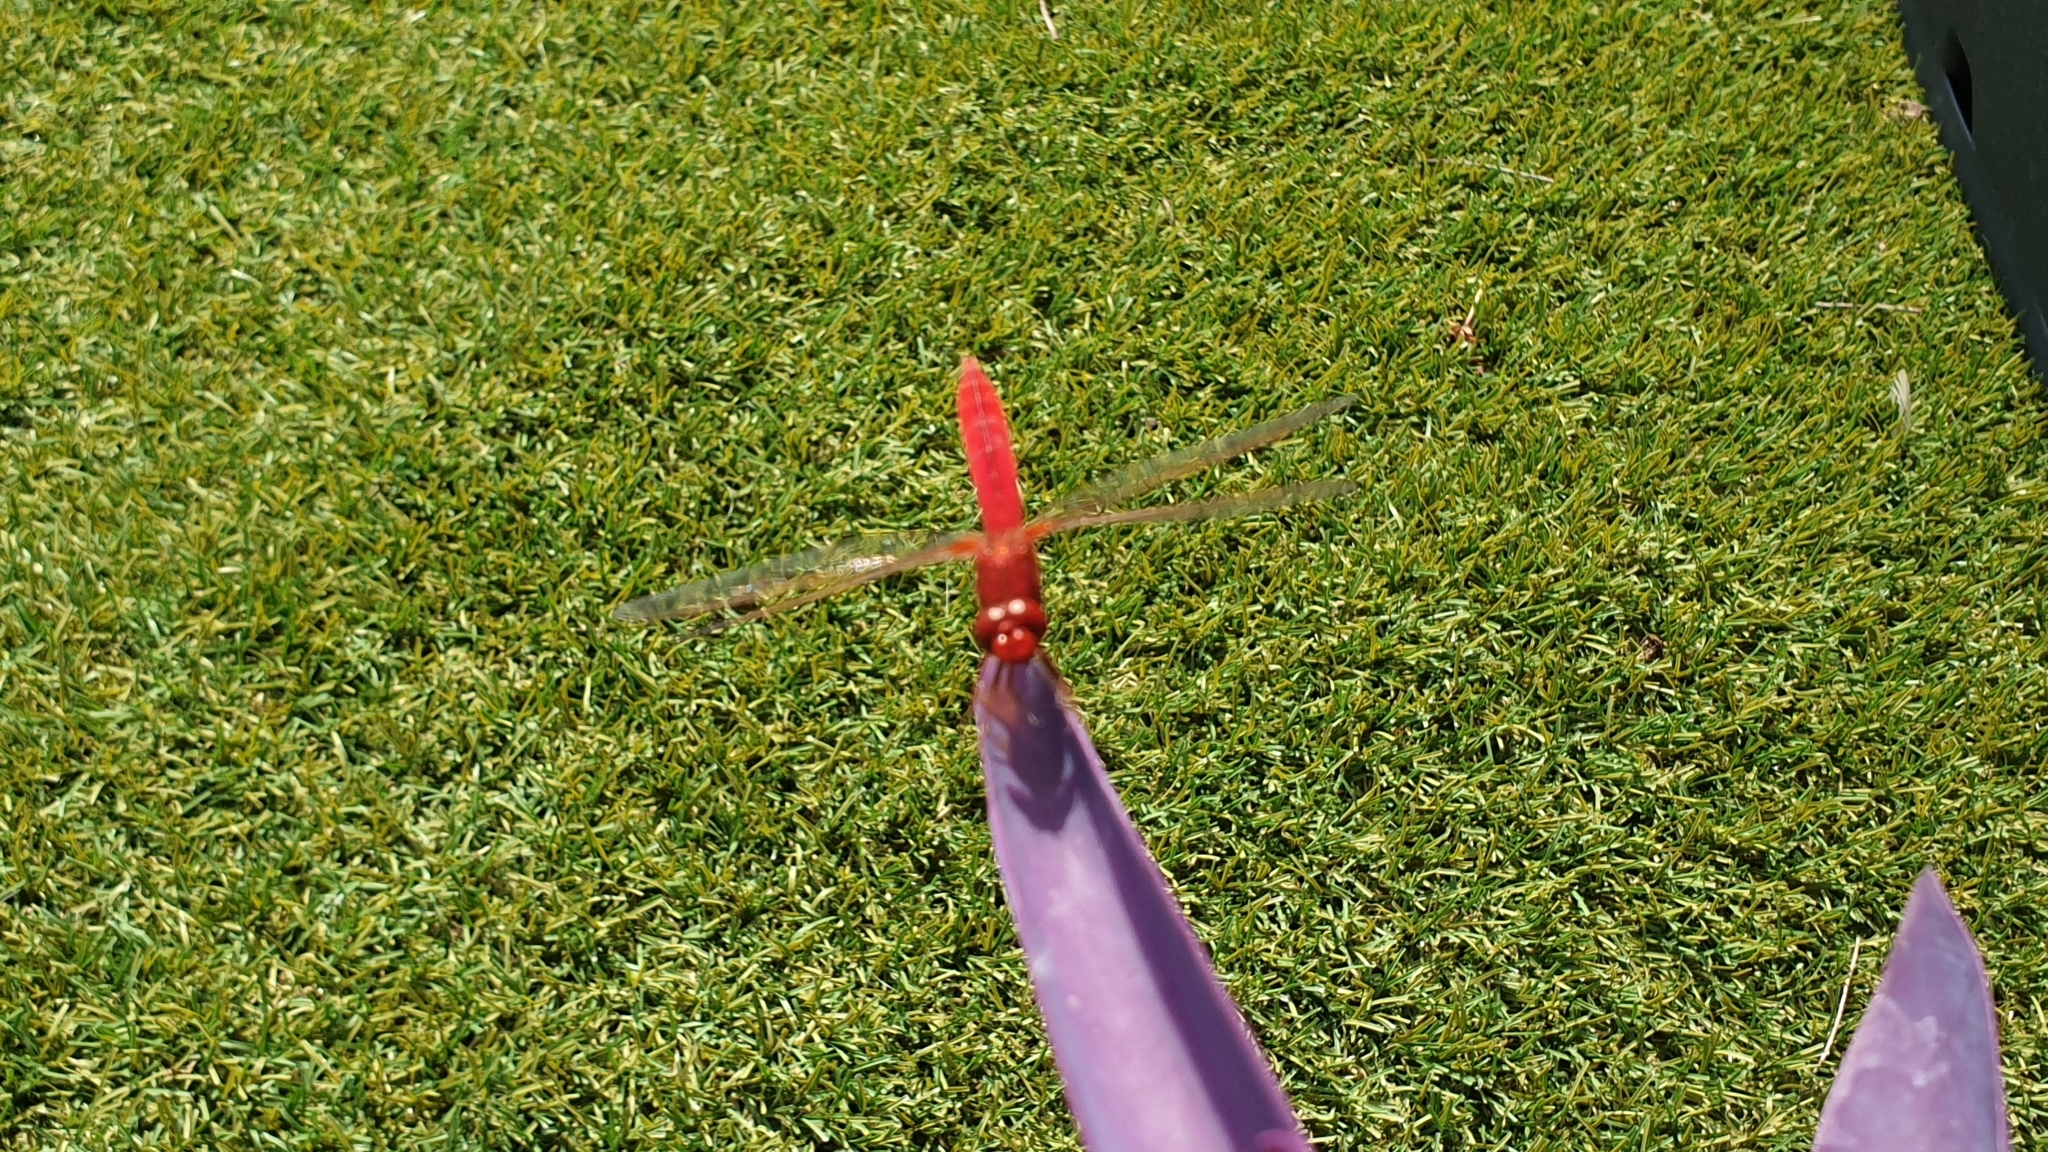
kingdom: Animalia
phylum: Arthropoda
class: Insecta
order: Odonata
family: Libellulidae
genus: Crocothemis
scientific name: Crocothemis erythraea
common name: Scarlet dragonfly
